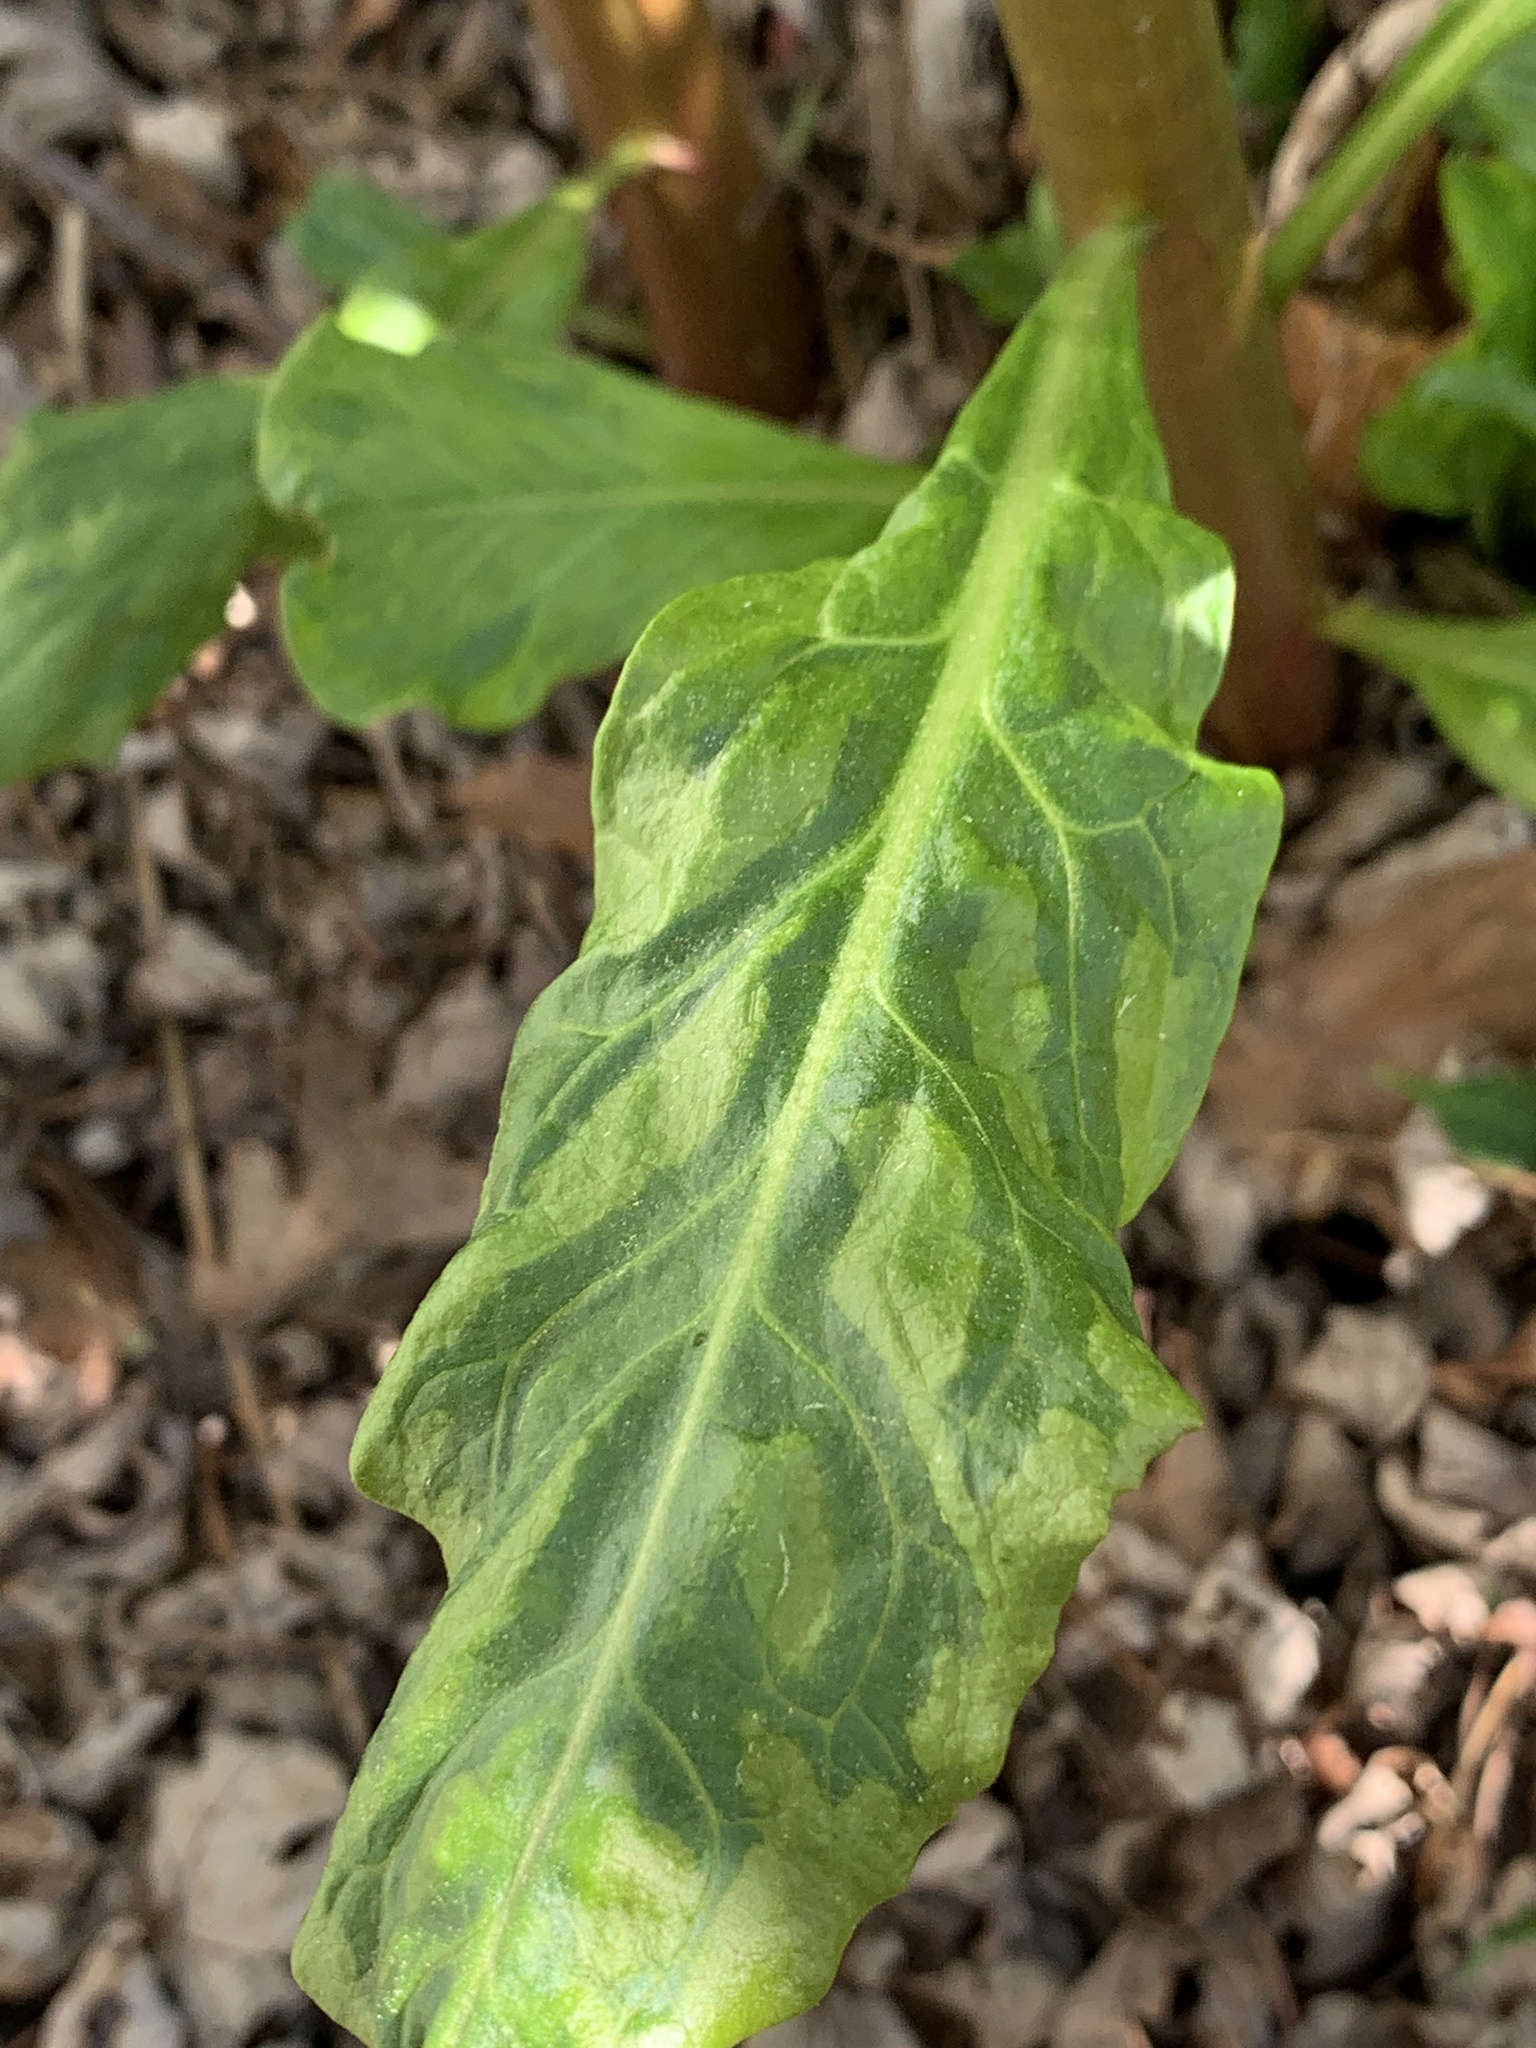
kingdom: Viruses
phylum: Pisuviricota
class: Stelpaviricetes
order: Patatavirales
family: Potyviridae
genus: Potyvirus
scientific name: Potyvirus Pokeweed mosaic virus
